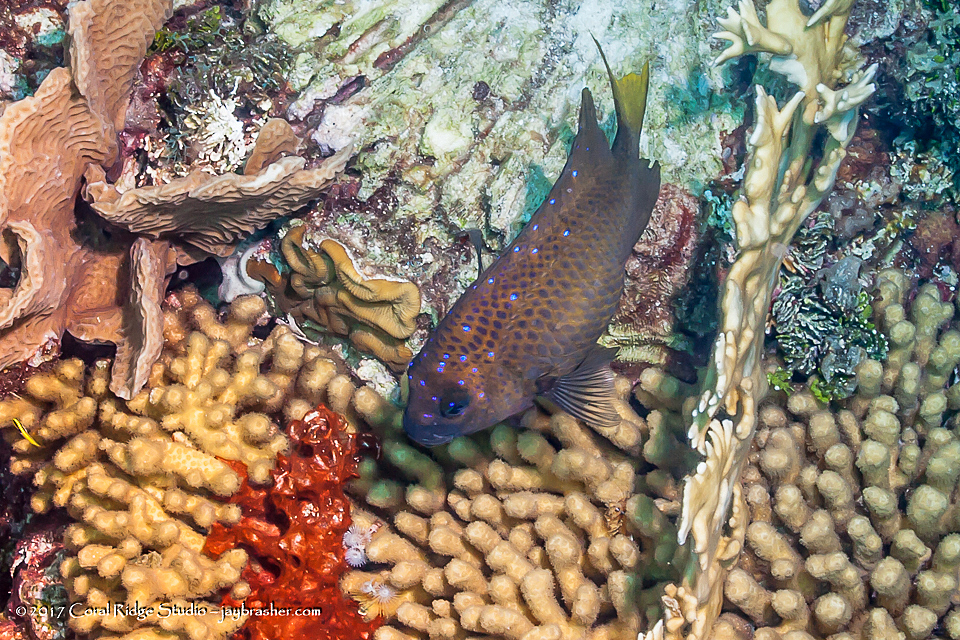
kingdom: Animalia
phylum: Chordata
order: Perciformes
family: Pomacentridae
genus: Microspathodon
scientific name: Microspathodon chrysurus
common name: Yellowtail damselfish
